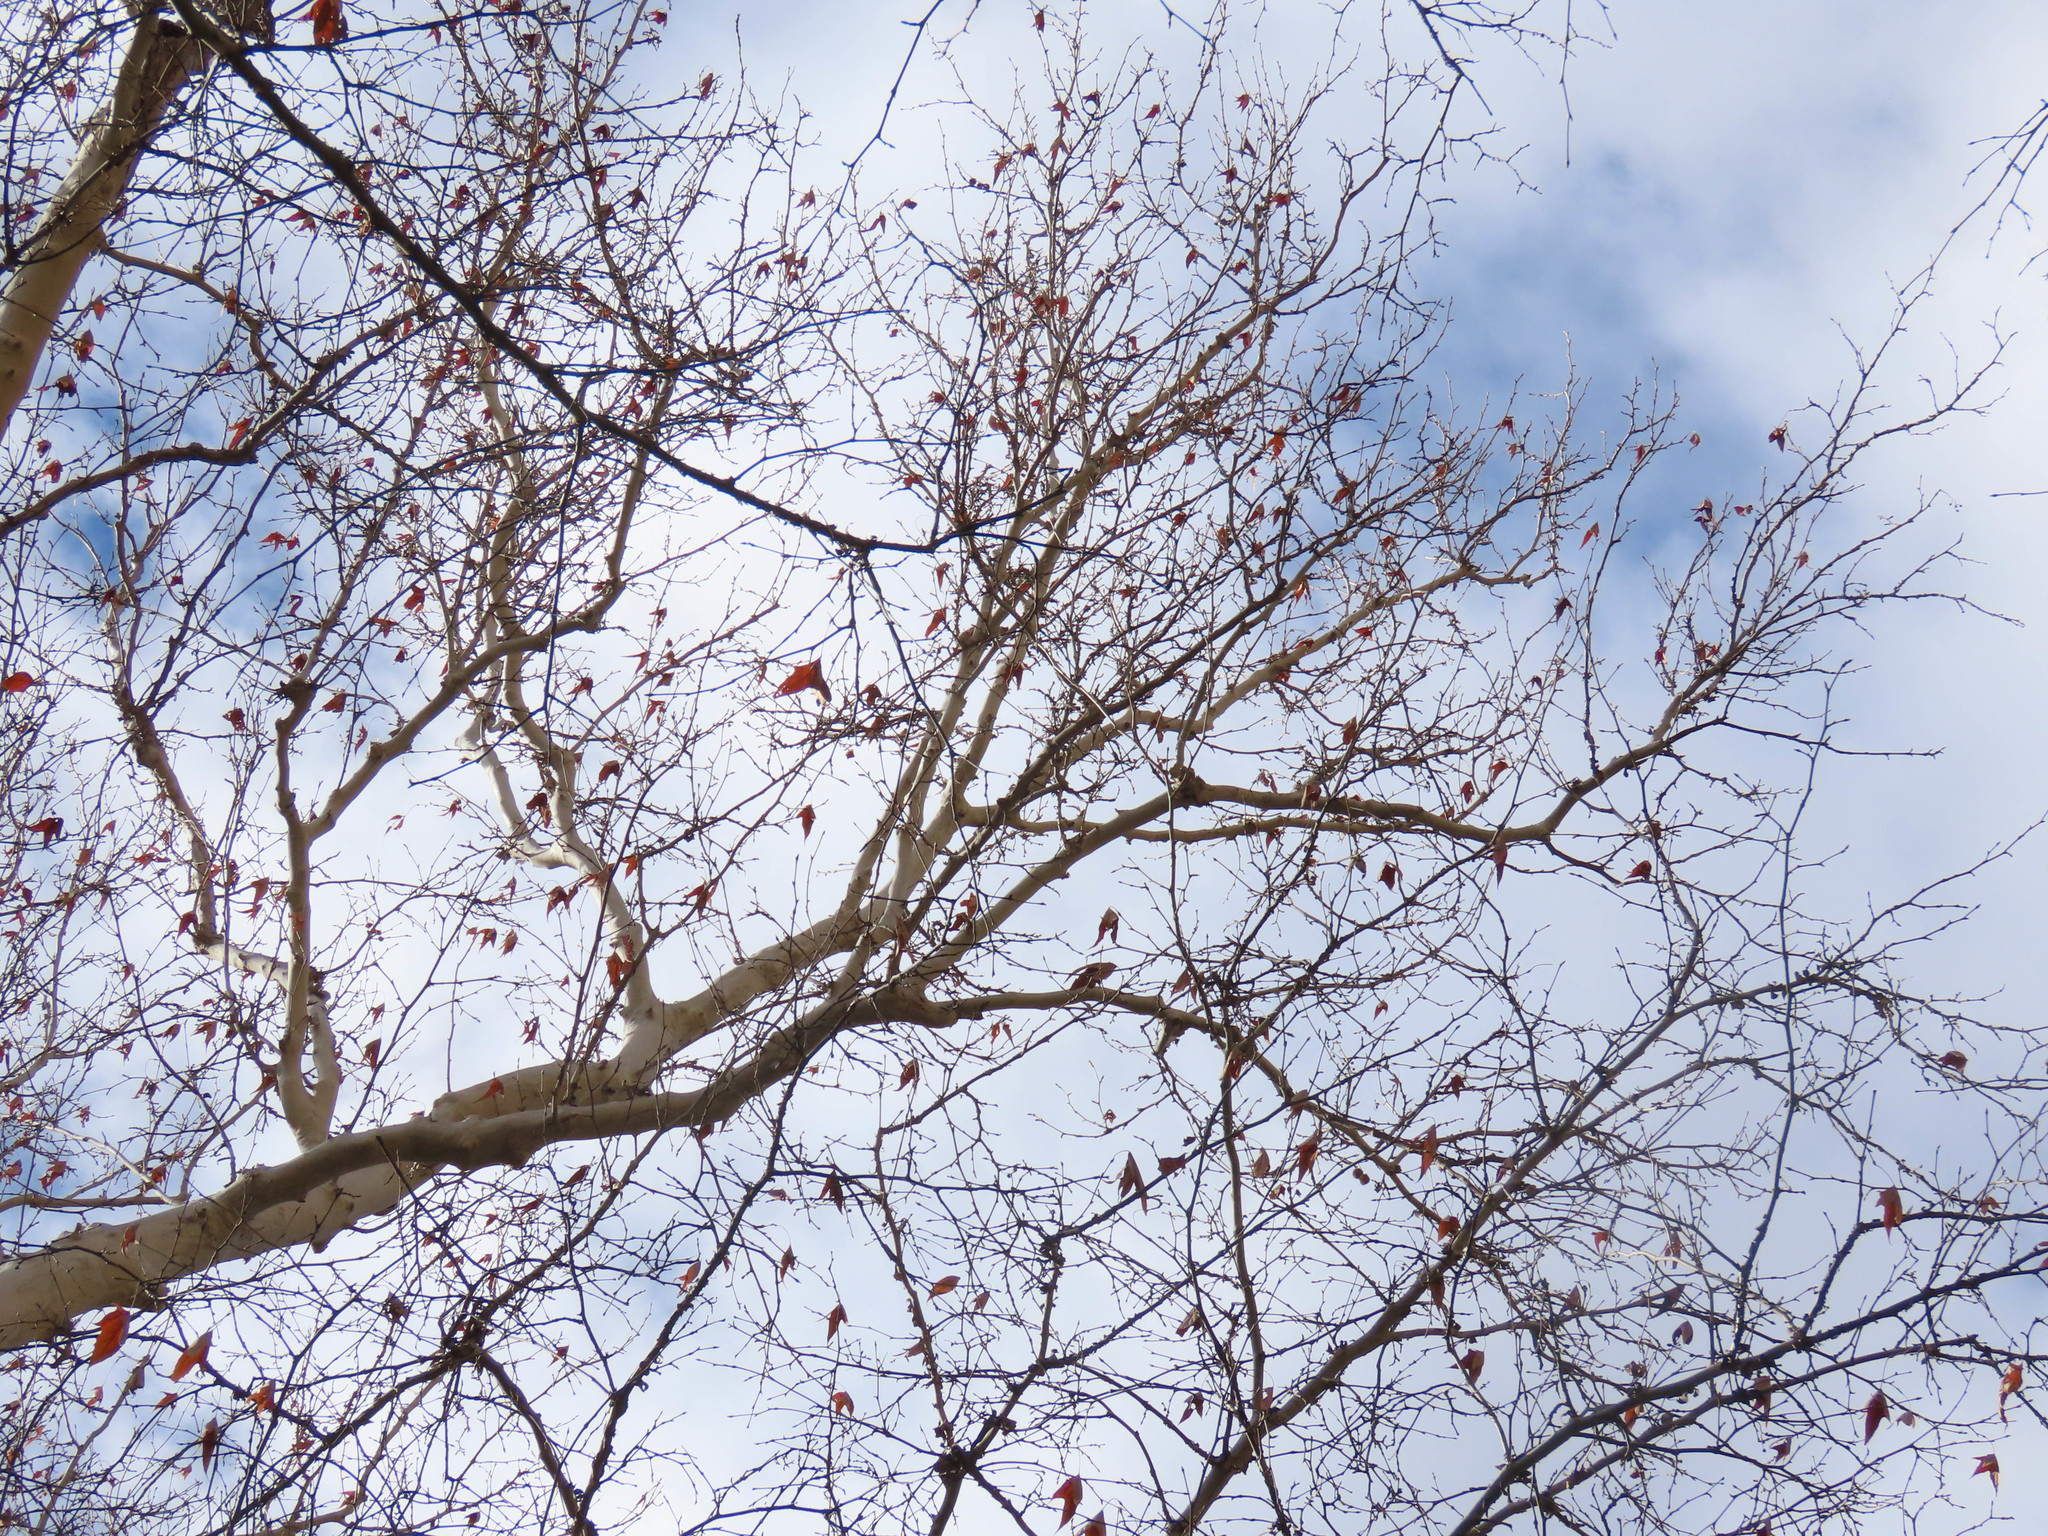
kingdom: Plantae
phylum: Tracheophyta
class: Magnoliopsida
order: Proteales
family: Platanaceae
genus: Platanus
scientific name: Platanus wrightii
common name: Arizona sycamore
